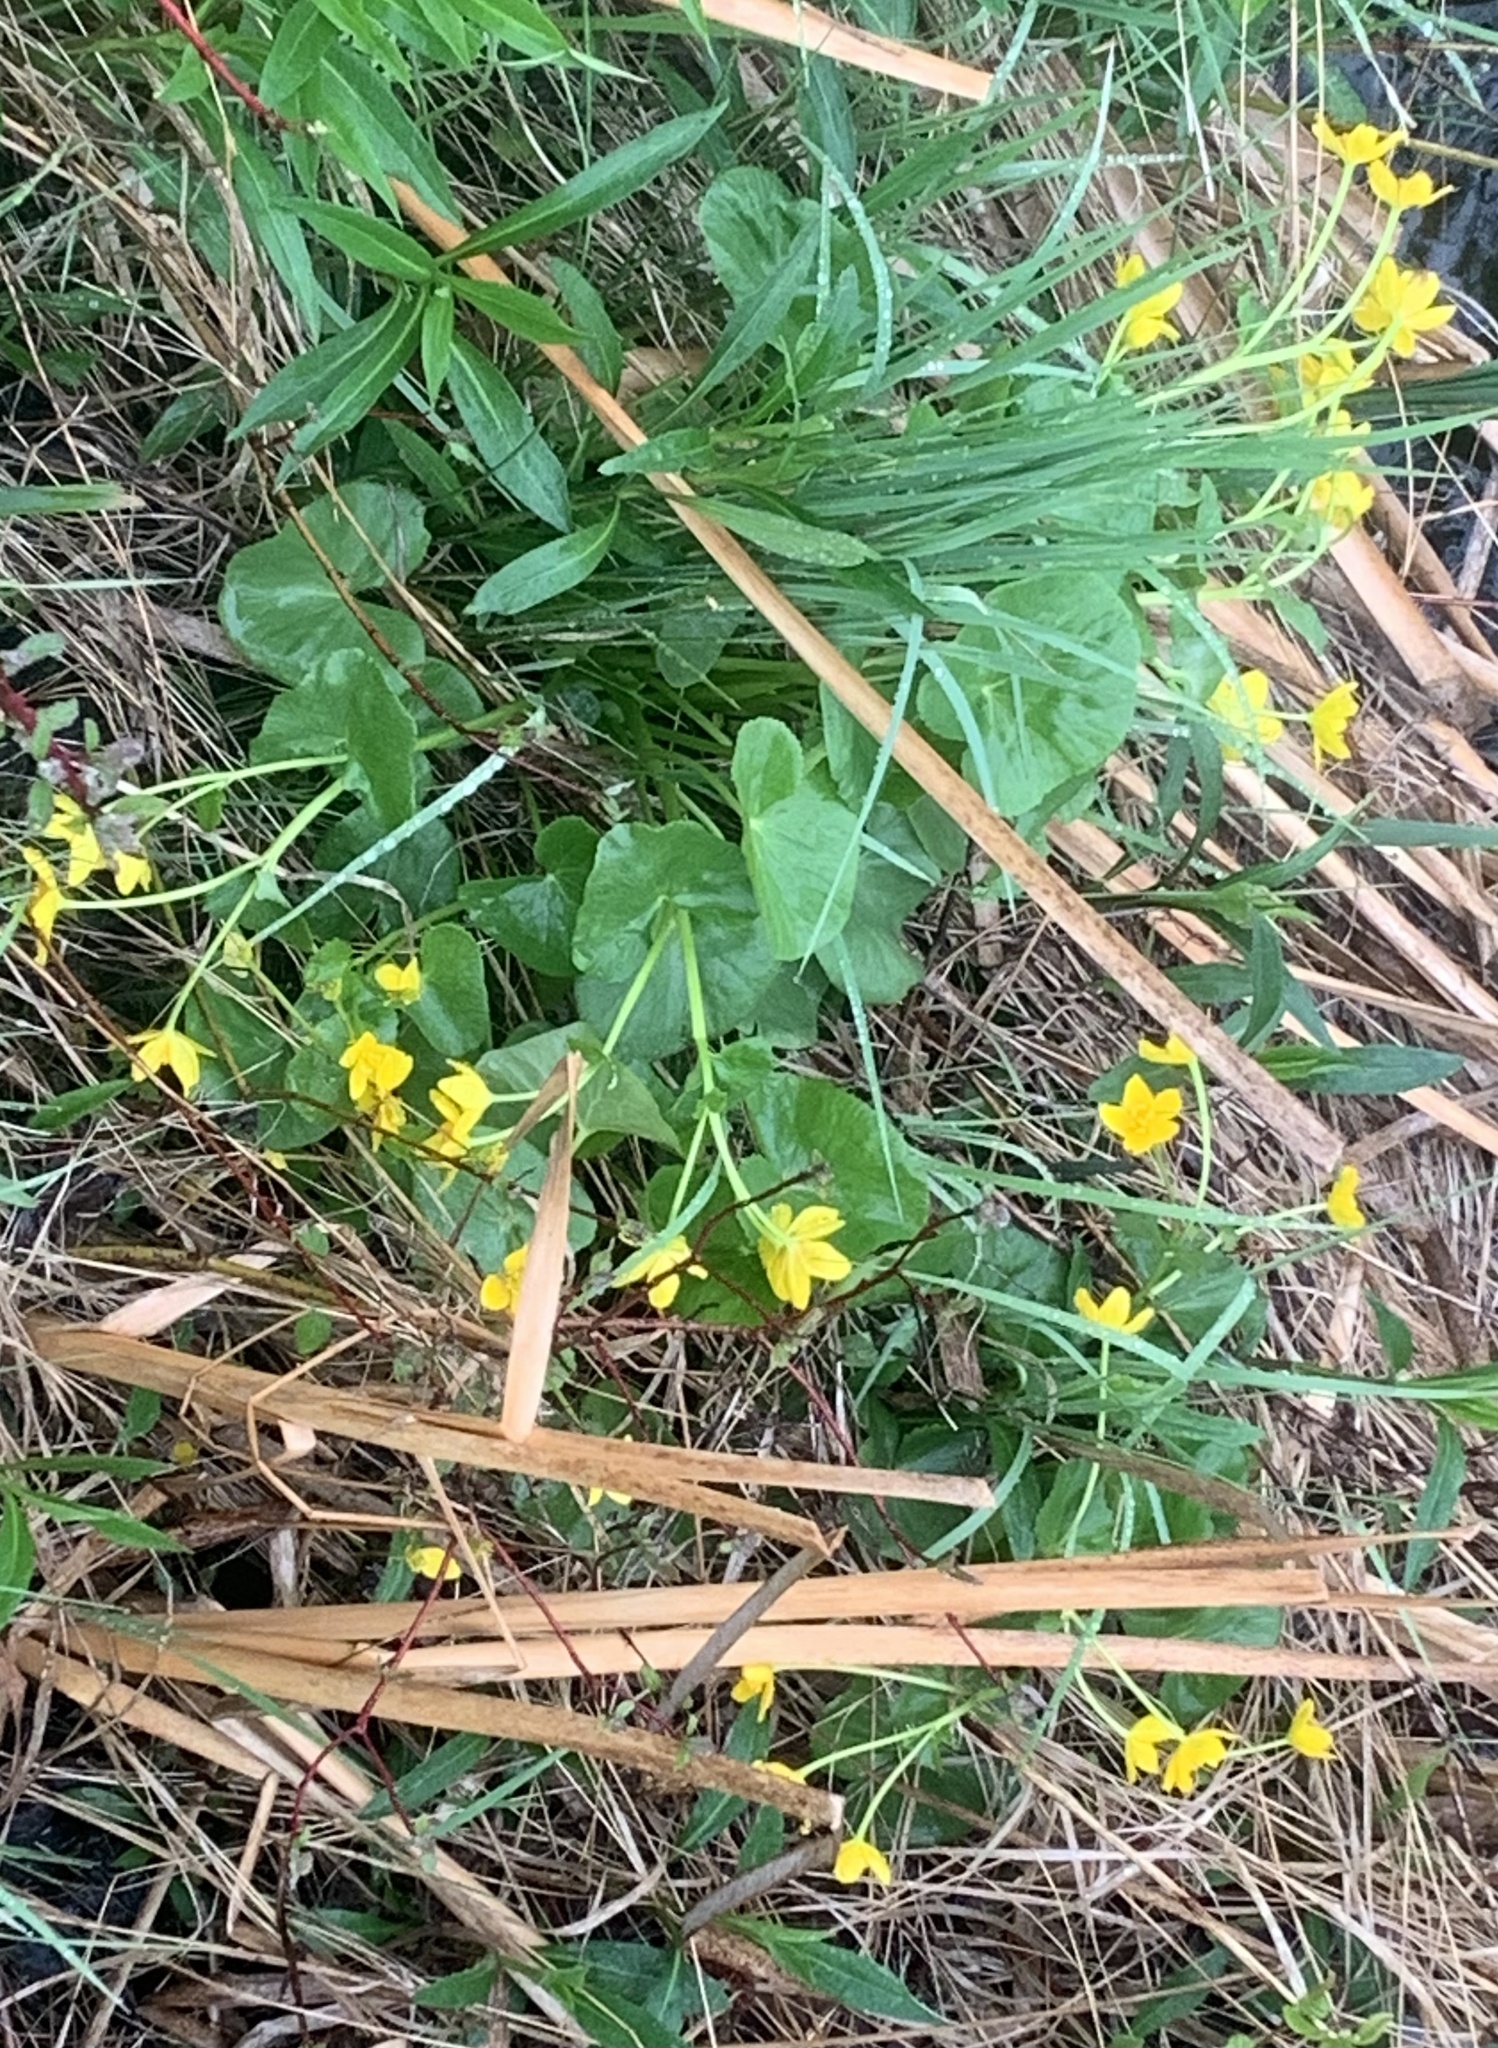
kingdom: Plantae
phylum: Tracheophyta
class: Magnoliopsida
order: Ranunculales
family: Ranunculaceae
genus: Caltha
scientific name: Caltha palustris
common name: Marsh marigold
